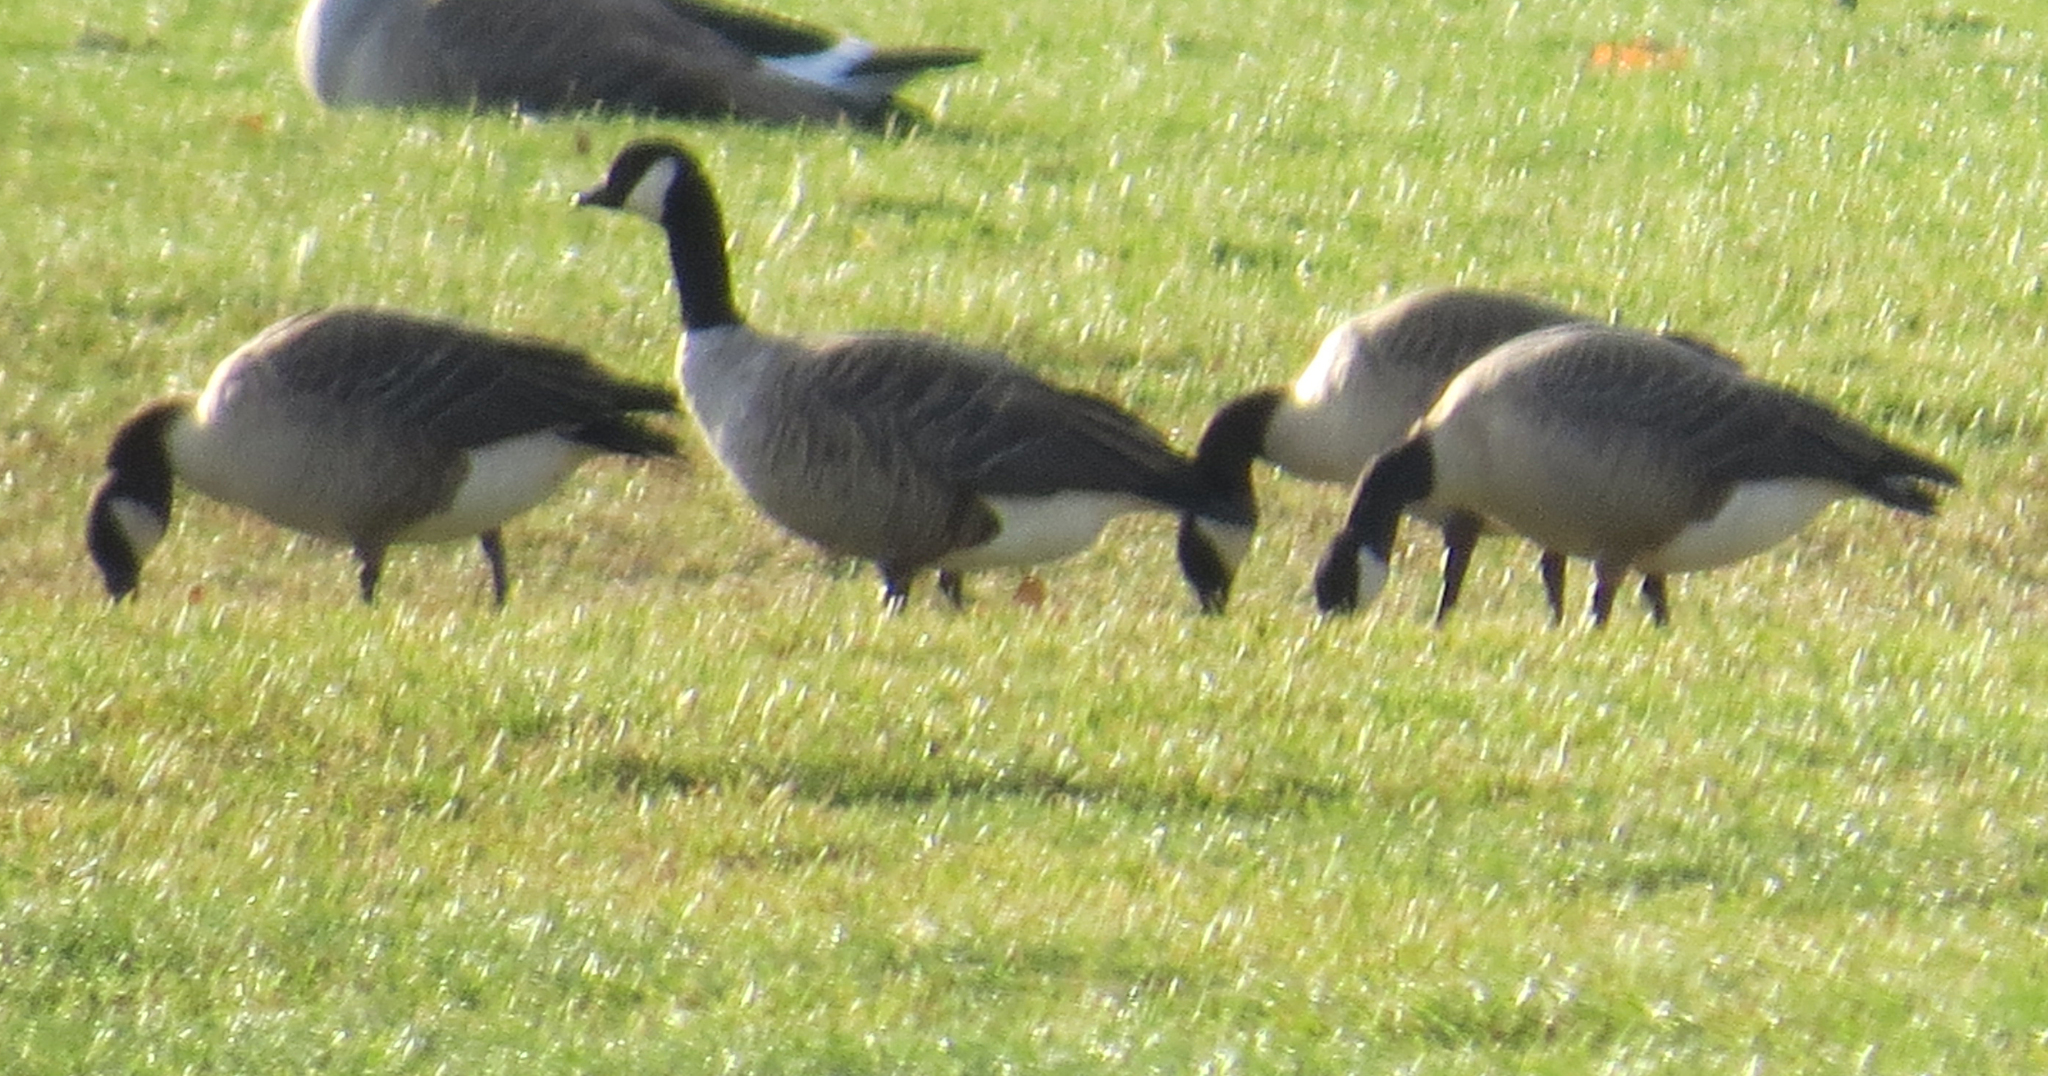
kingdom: Animalia
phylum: Chordata
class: Aves
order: Anseriformes
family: Anatidae
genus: Branta
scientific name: Branta hutchinsii
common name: Cackling goose
